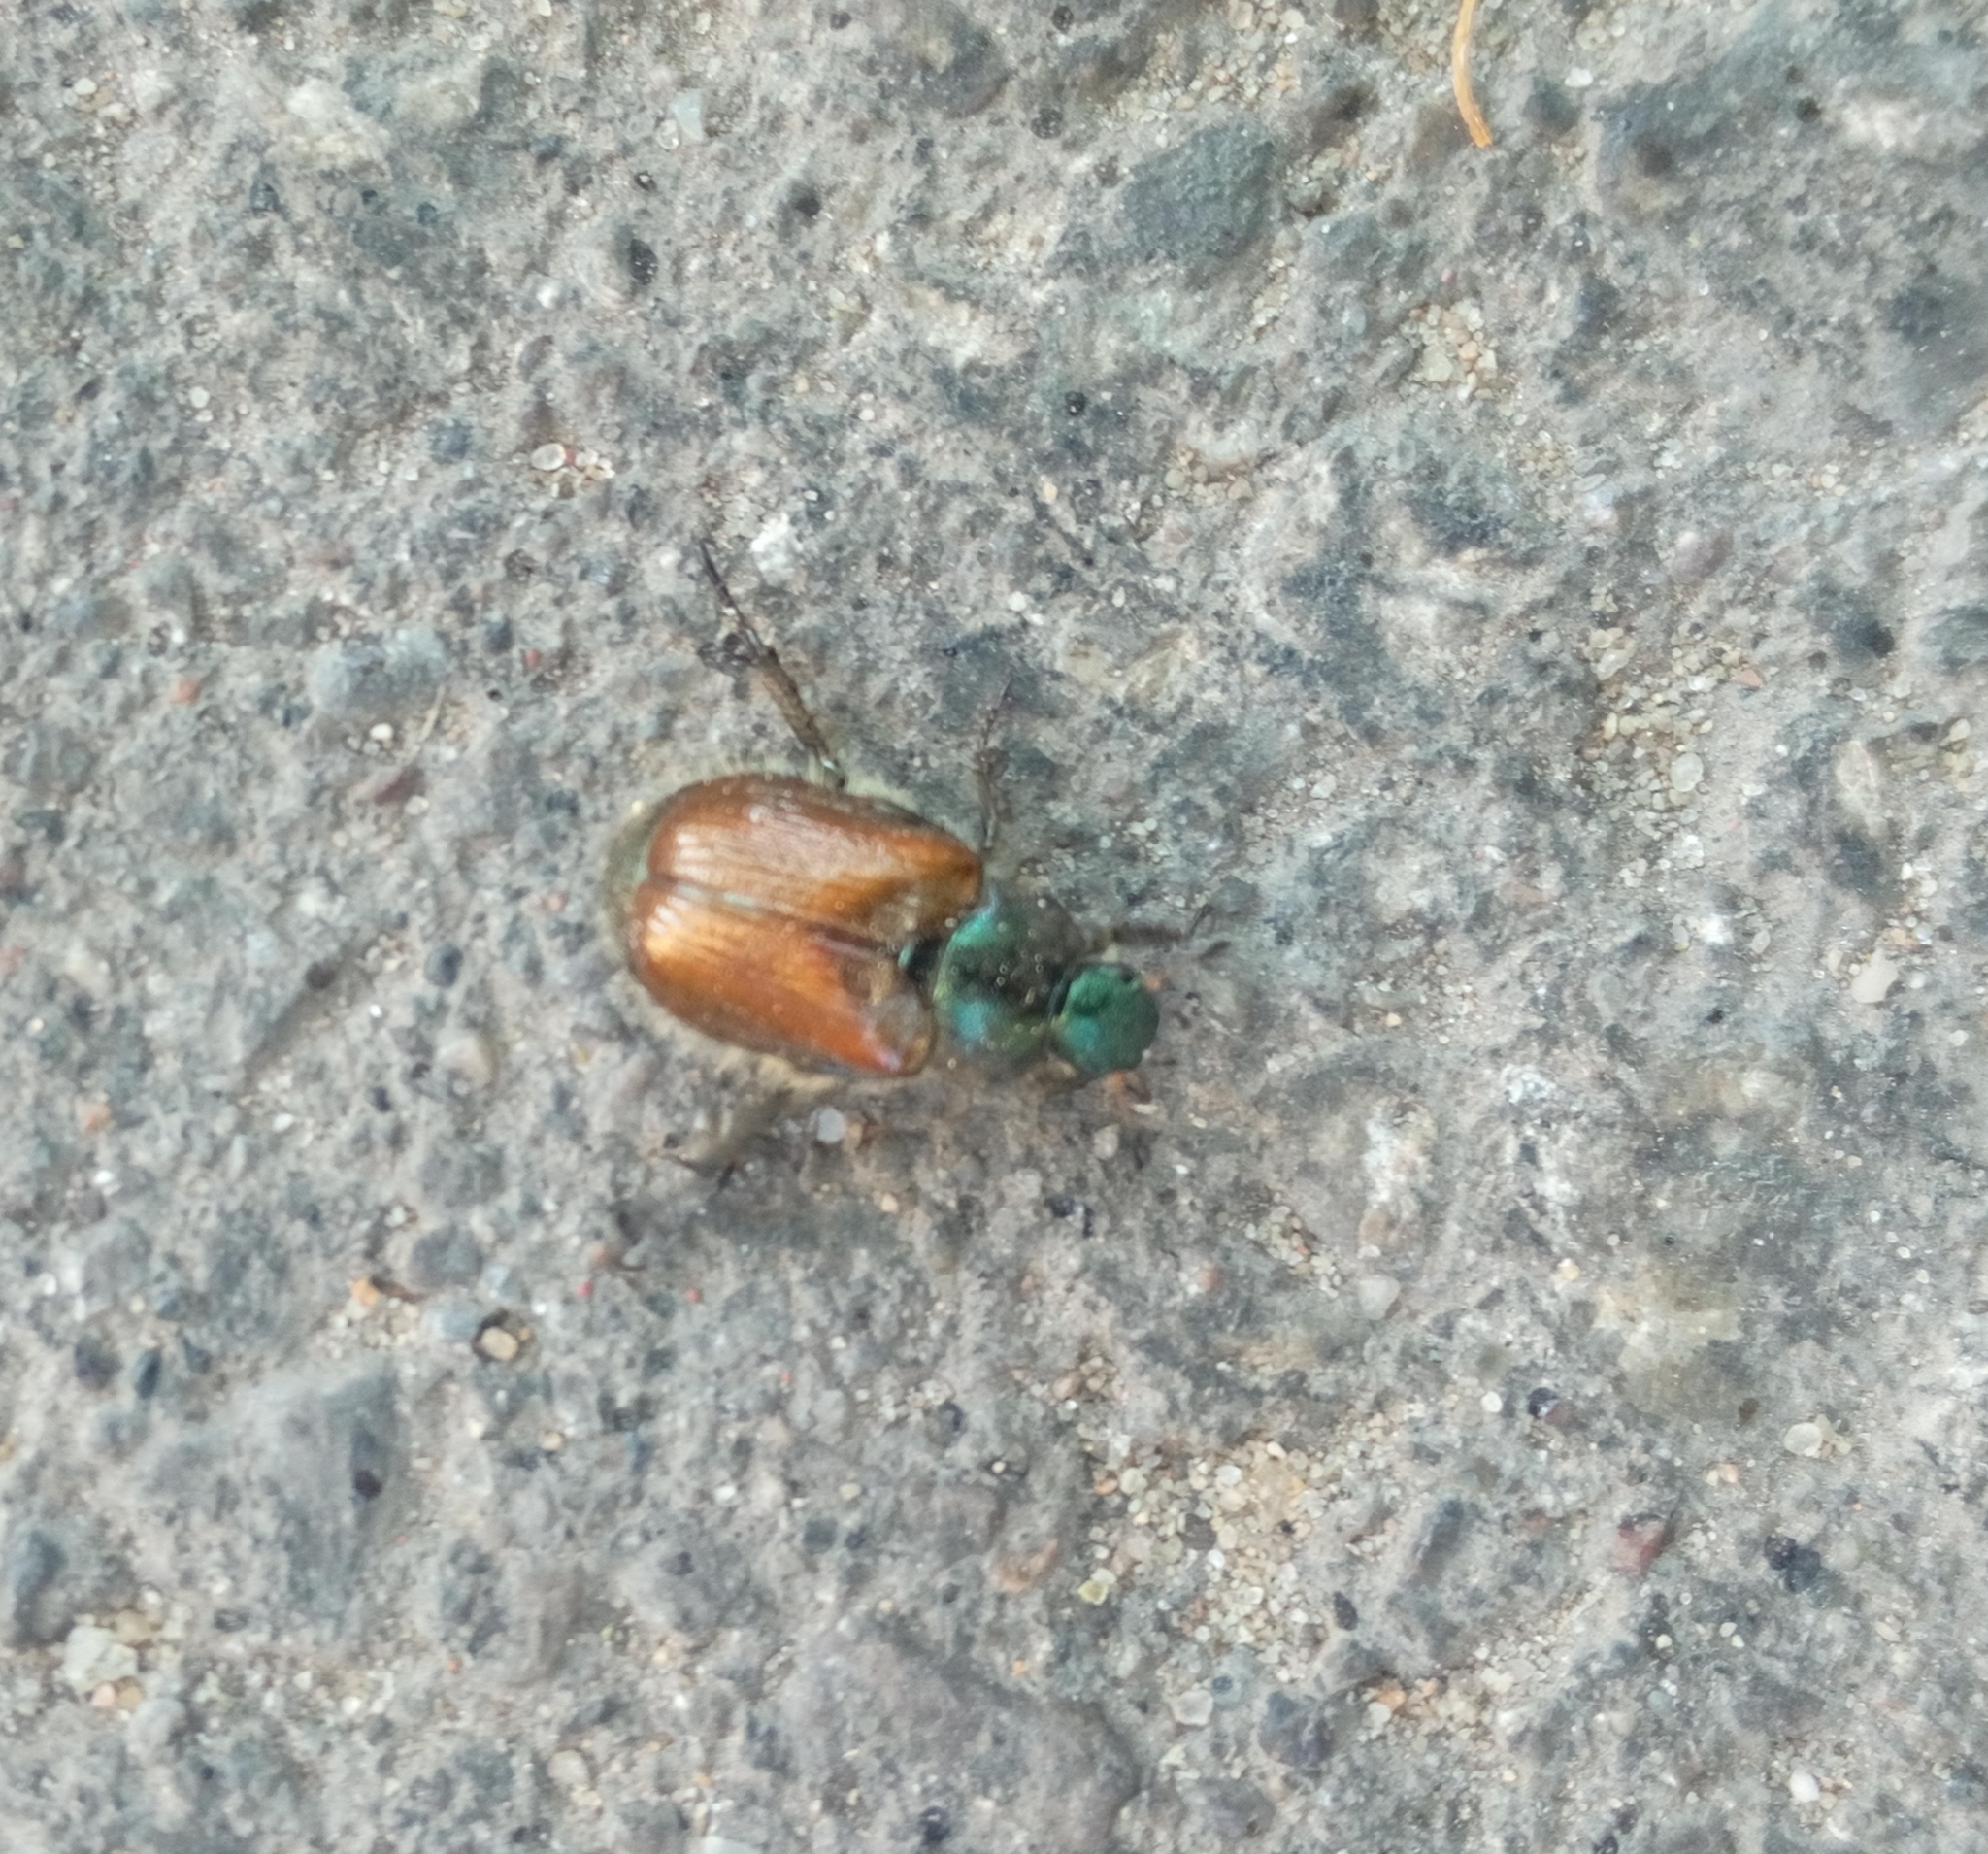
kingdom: Animalia
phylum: Arthropoda
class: Insecta
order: Coleoptera
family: Scarabaeidae
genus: Phyllopertha
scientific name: Phyllopertha horticola
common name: Garden chafer
